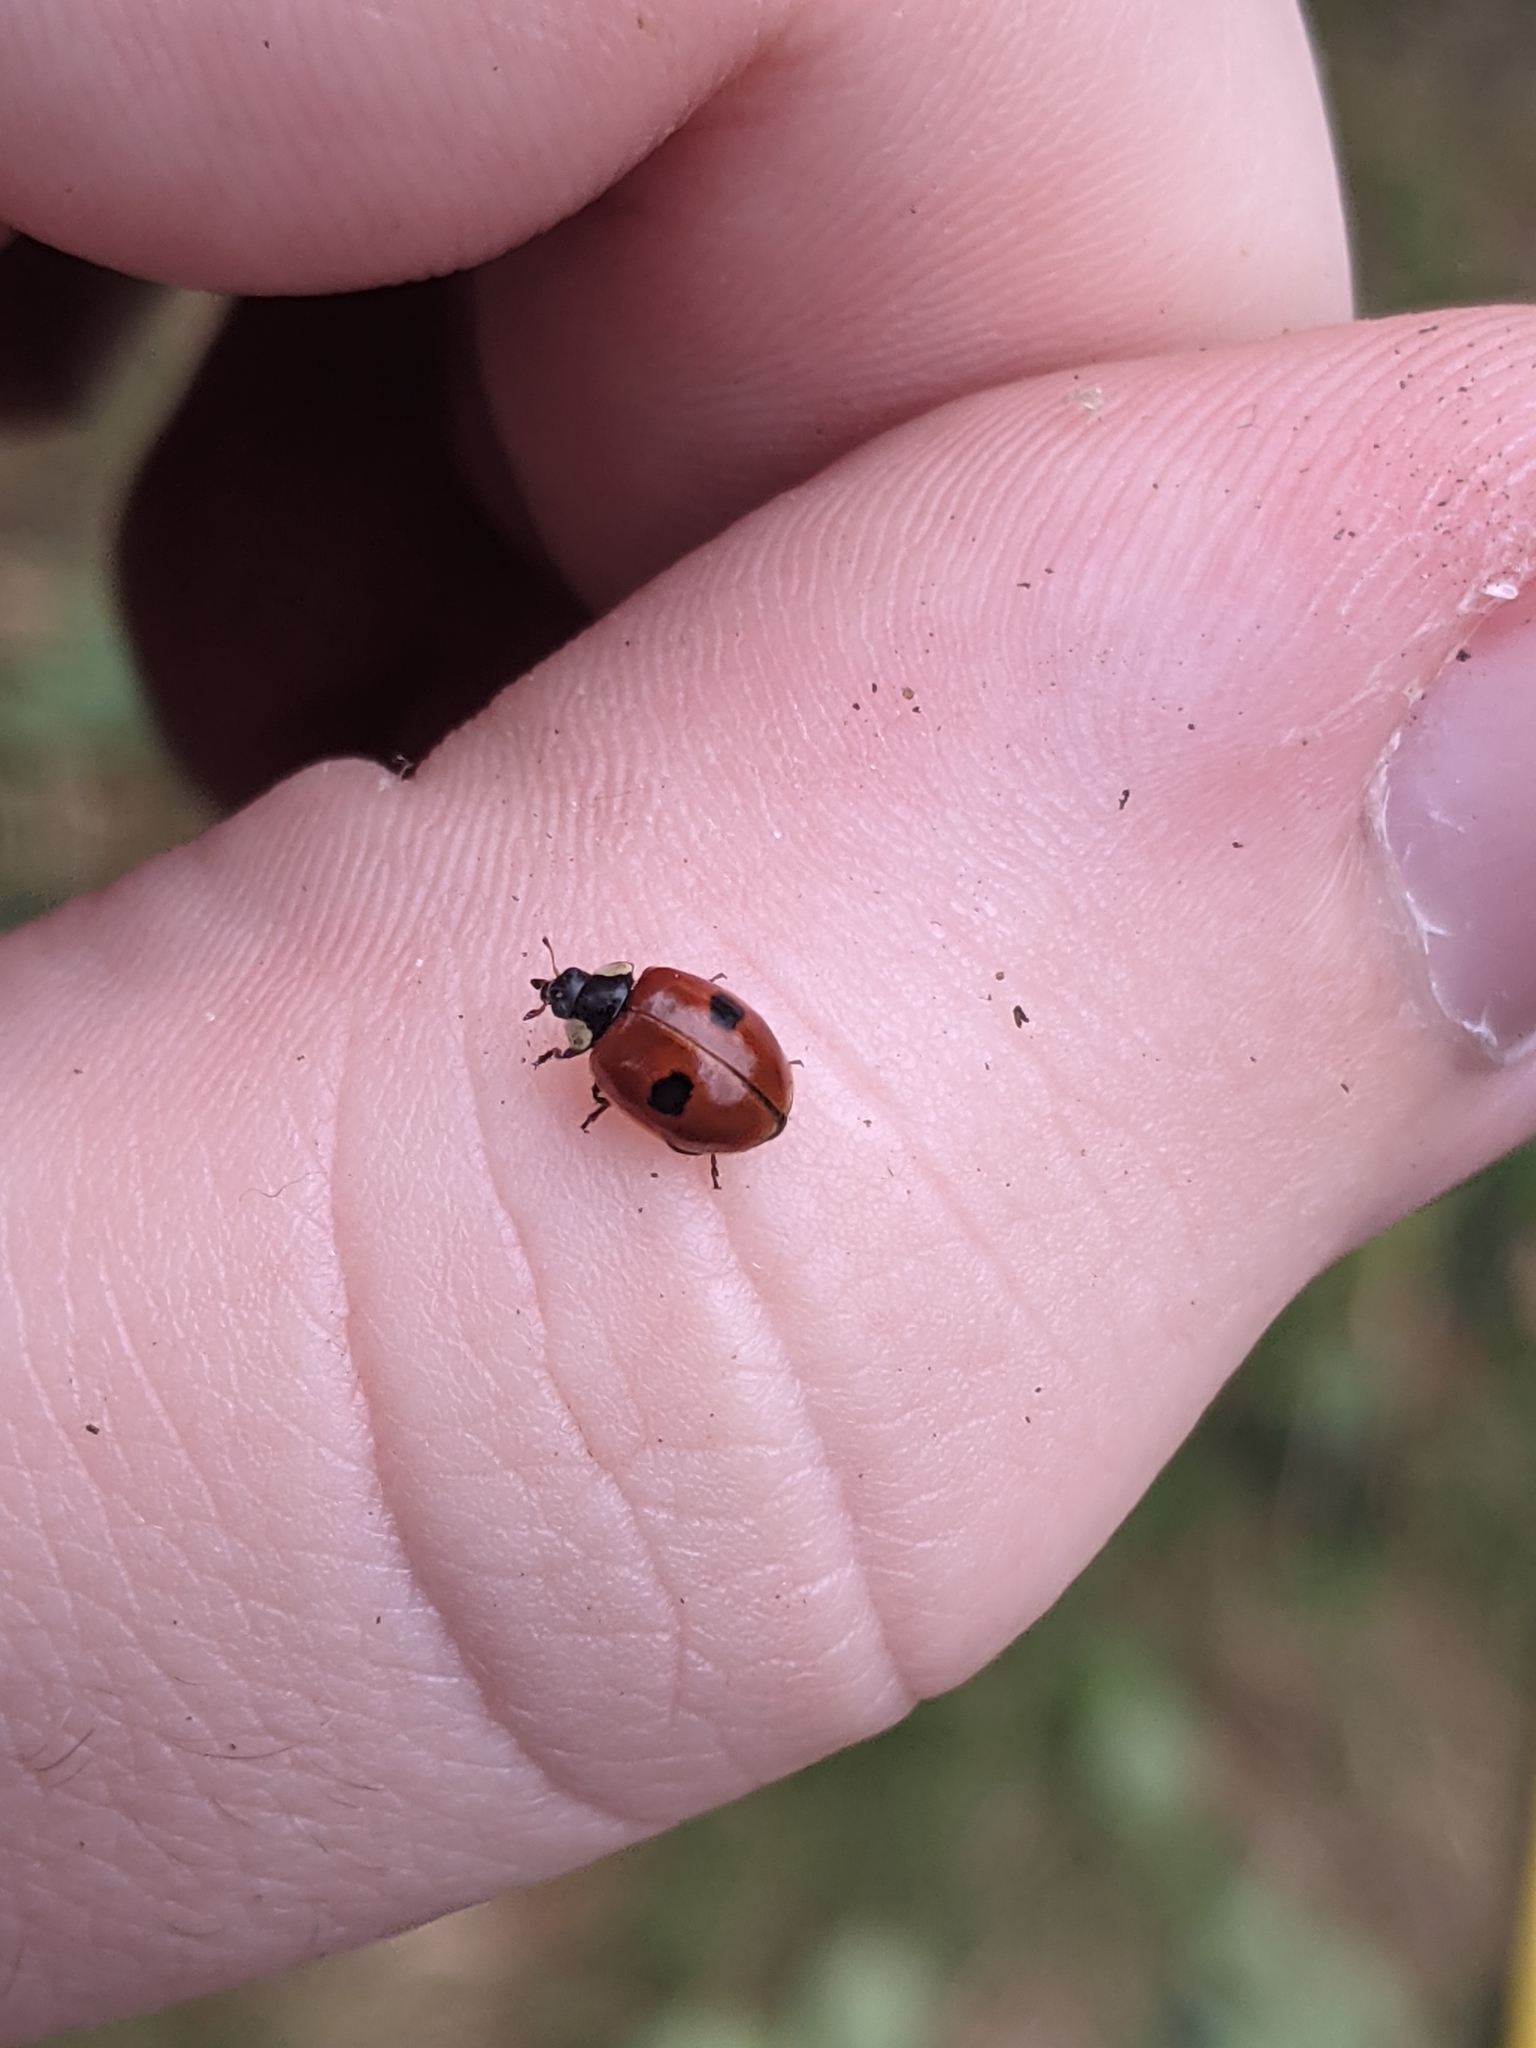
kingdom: Animalia
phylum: Arthropoda
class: Insecta
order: Coleoptera
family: Coccinellidae
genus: Adalia
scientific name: Adalia bipunctata
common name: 2-spot ladybird
